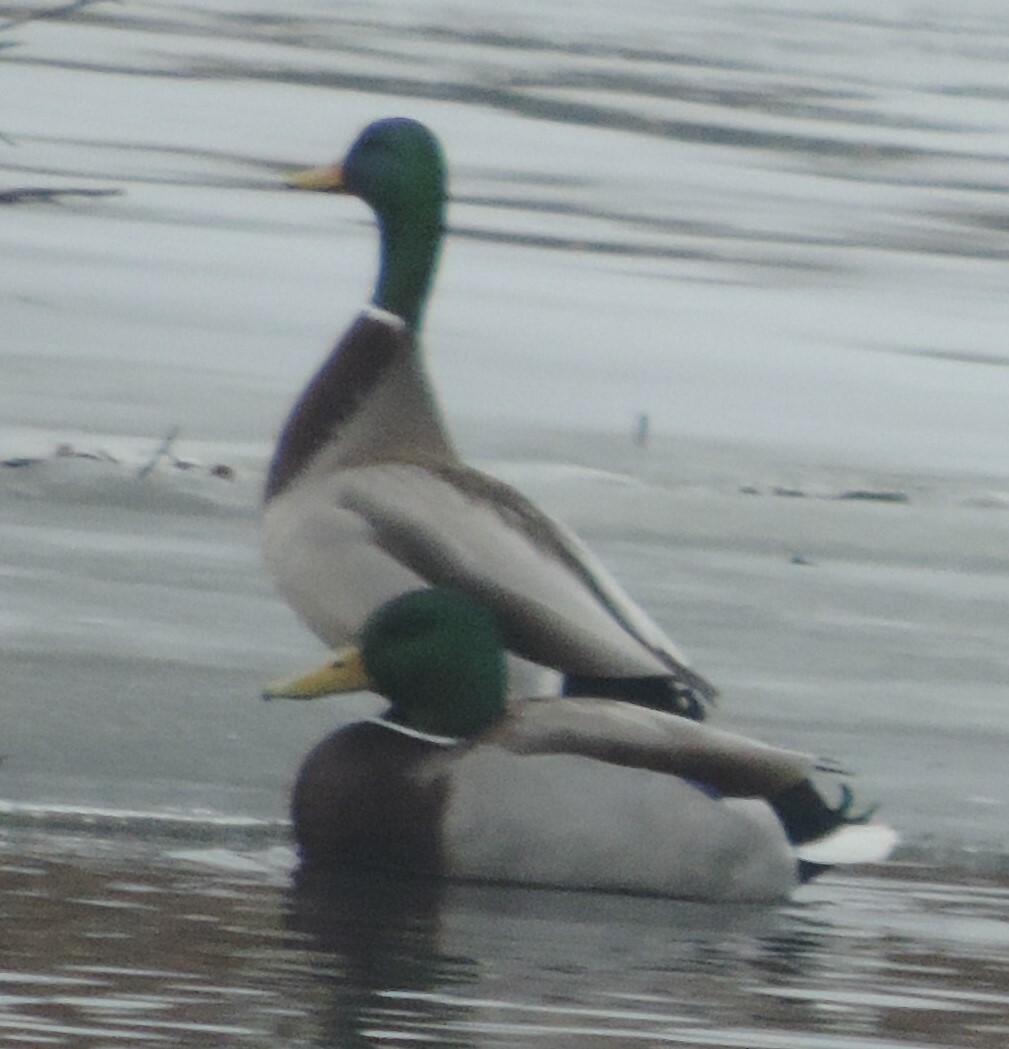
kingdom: Animalia
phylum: Chordata
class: Aves
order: Anseriformes
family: Anatidae
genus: Anas
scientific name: Anas platyrhynchos
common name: Mallard
